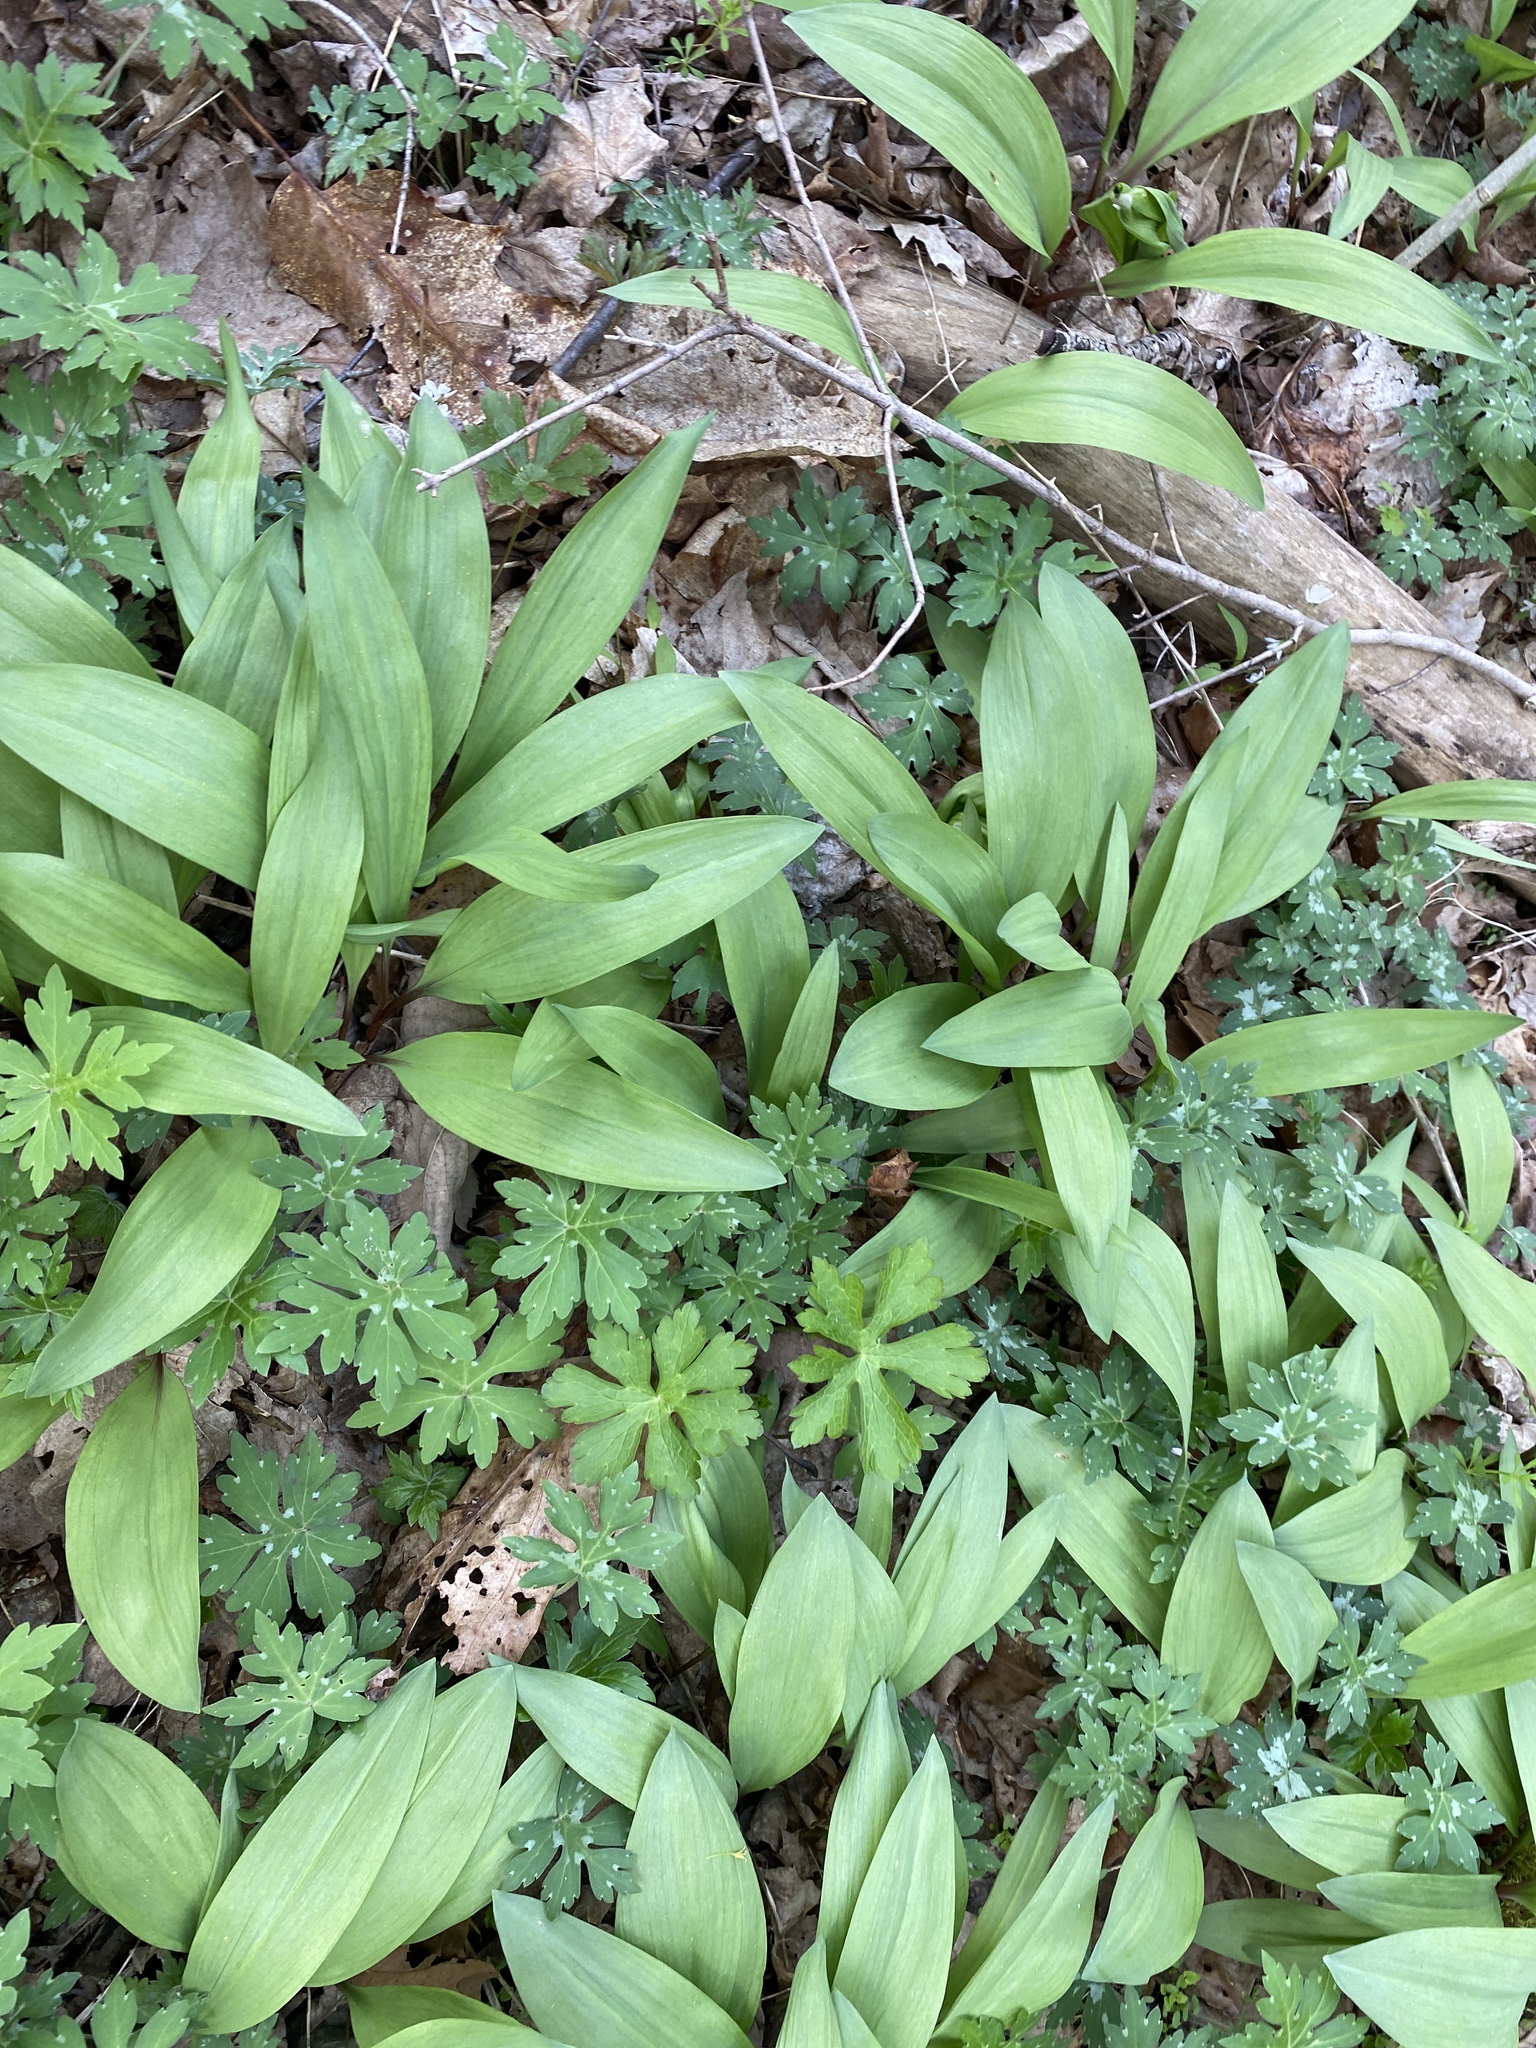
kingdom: Plantae
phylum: Tracheophyta
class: Liliopsida
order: Asparagales
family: Amaryllidaceae
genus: Allium
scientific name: Allium tricoccum
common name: Ramp
